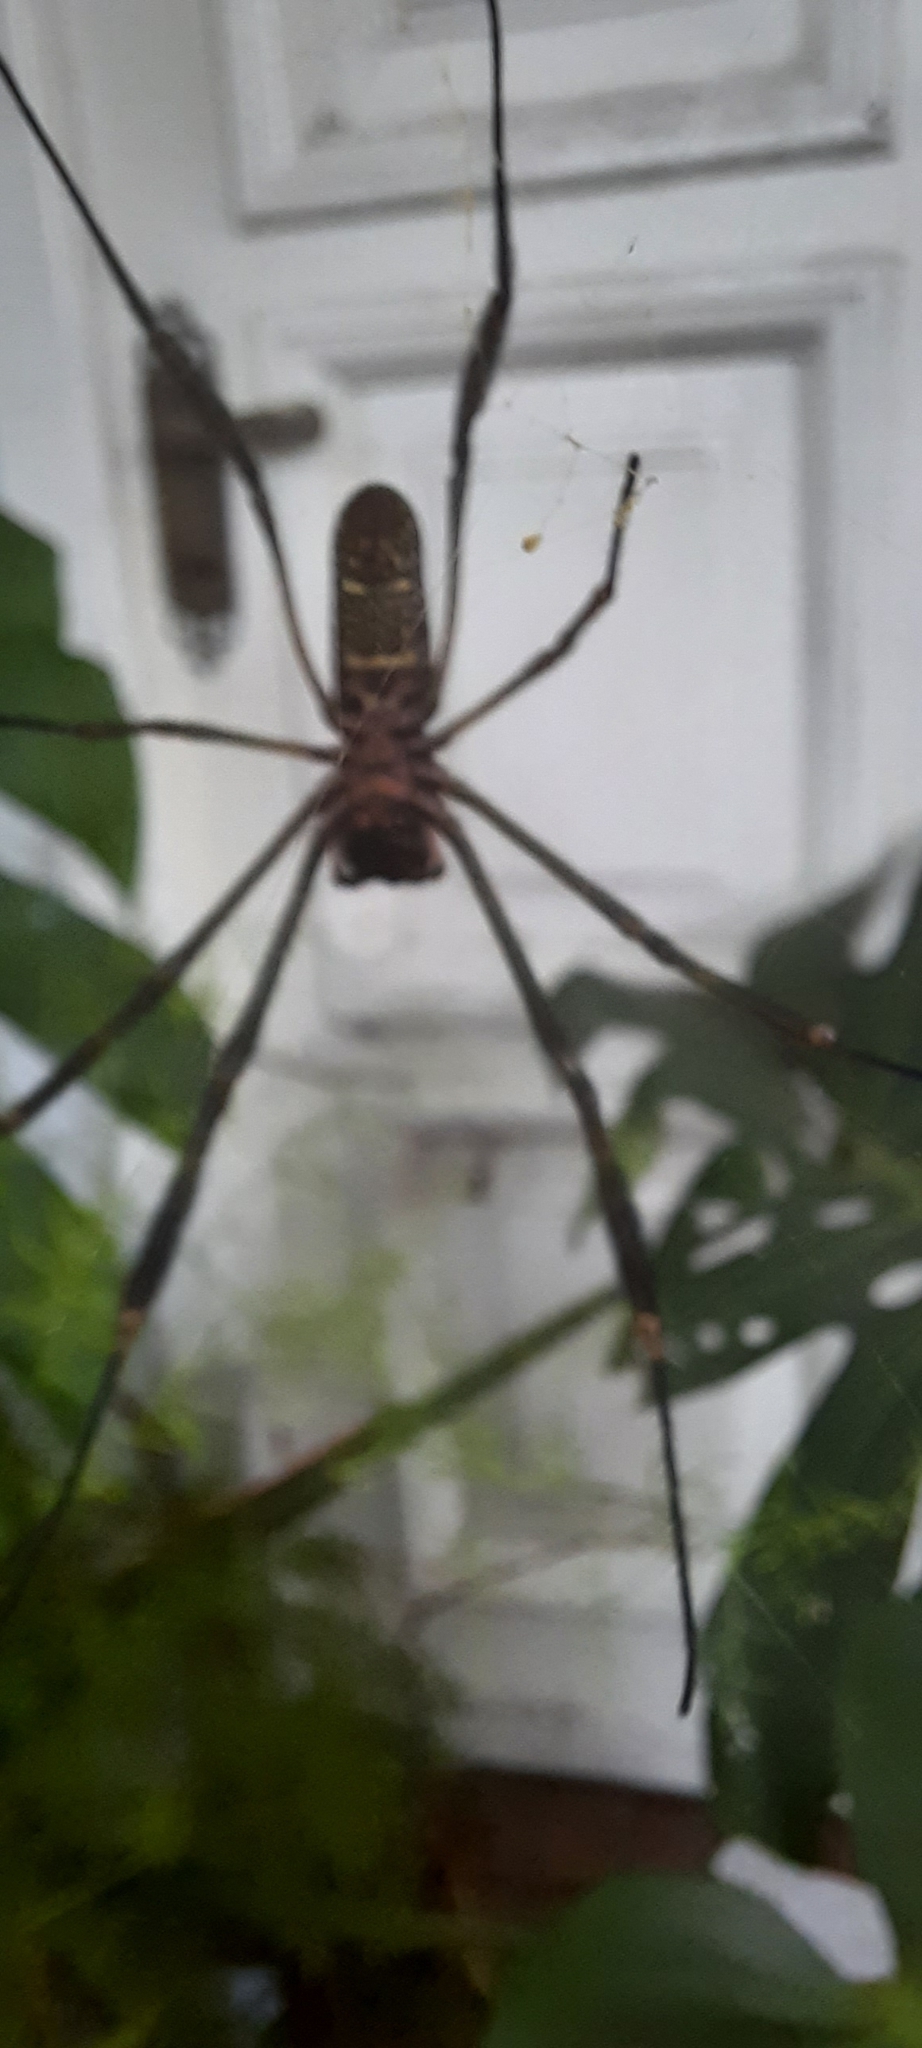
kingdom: Animalia
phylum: Arthropoda
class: Arachnida
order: Araneae
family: Araneidae
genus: Trichonephila
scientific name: Trichonephila clavipes
